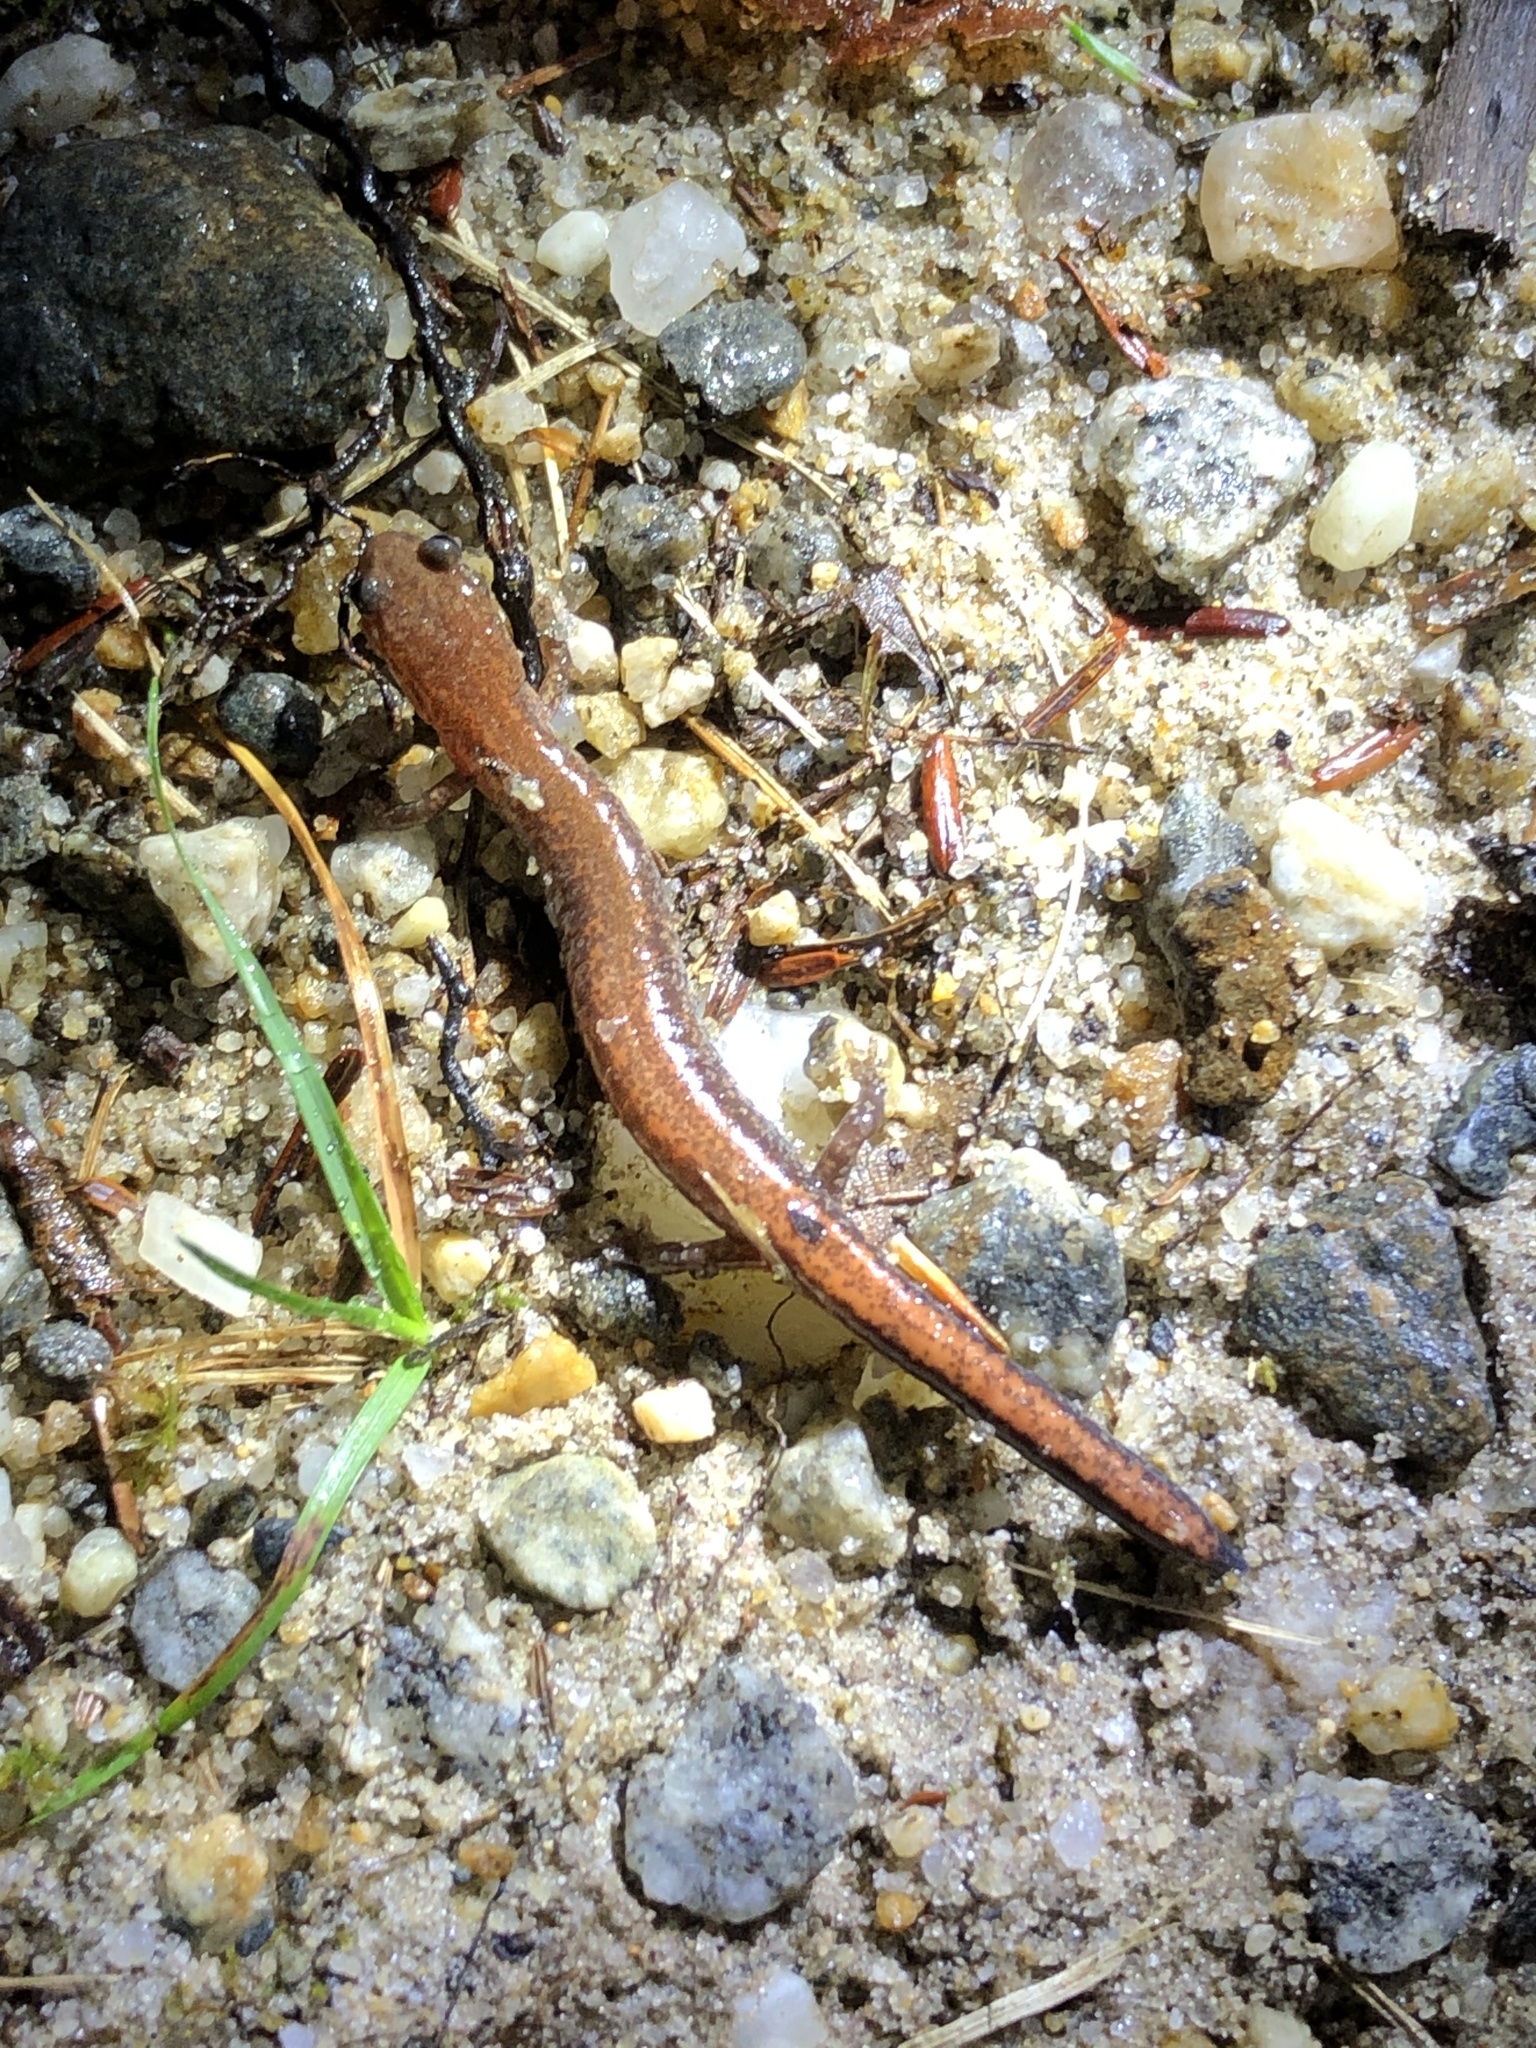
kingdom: Animalia
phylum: Chordata
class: Amphibia
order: Caudata
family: Plethodontidae
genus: Plethodon
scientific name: Plethodon cinereus
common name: Redback salamander
